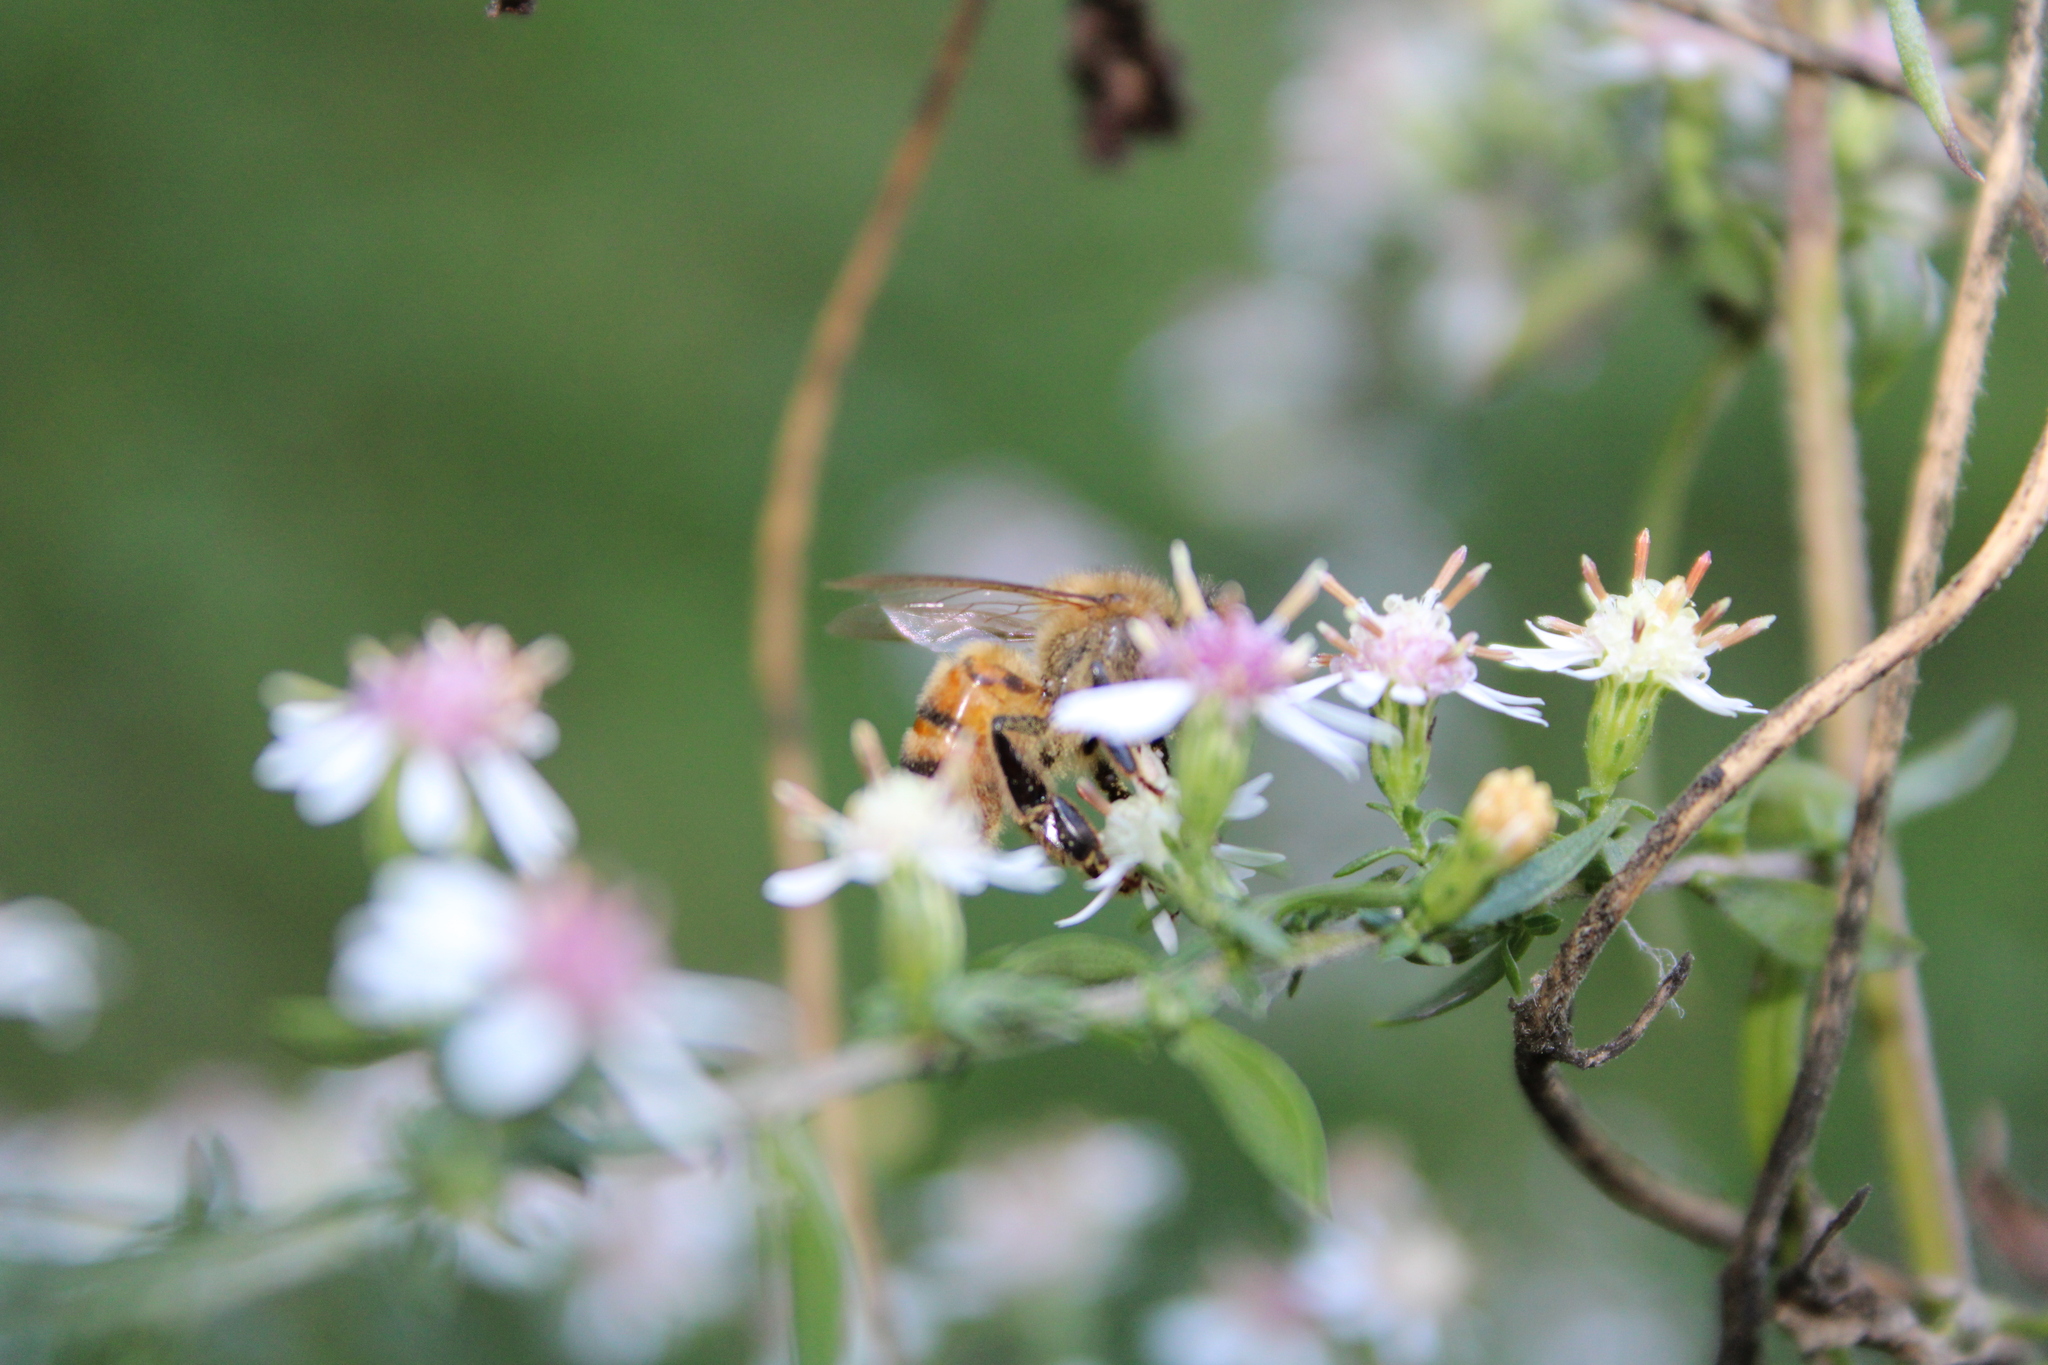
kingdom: Animalia
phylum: Arthropoda
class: Insecta
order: Hymenoptera
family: Apidae
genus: Apis
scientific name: Apis mellifera
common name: Honey bee
